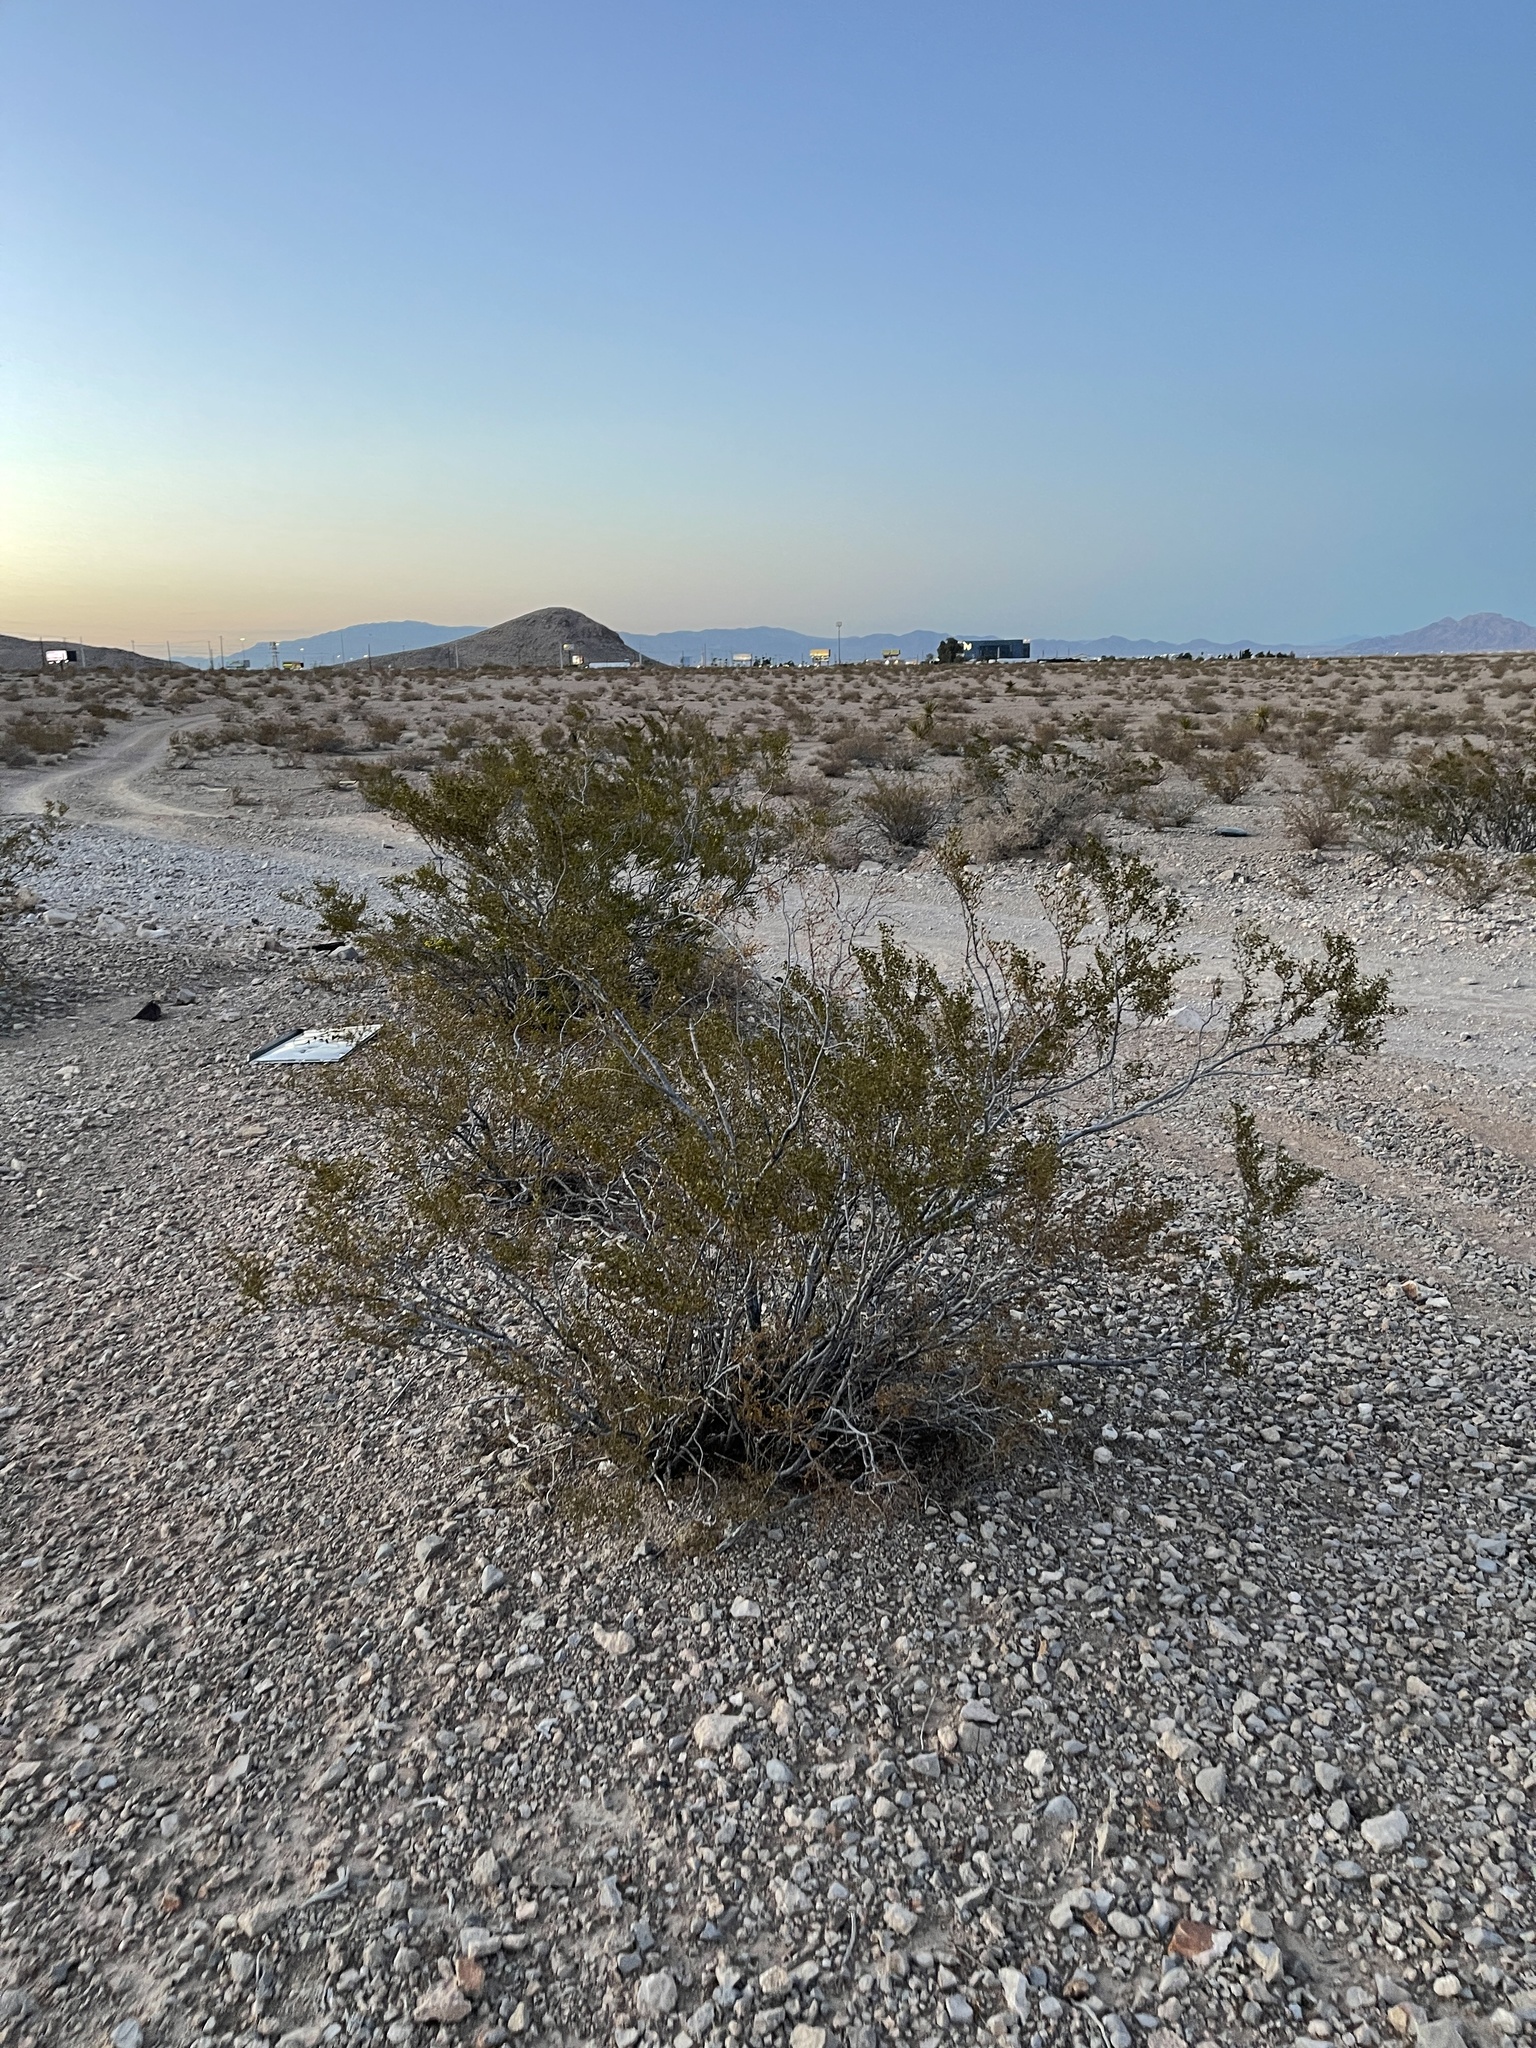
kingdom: Plantae
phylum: Tracheophyta
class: Magnoliopsida
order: Zygophyllales
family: Zygophyllaceae
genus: Larrea
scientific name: Larrea tridentata
